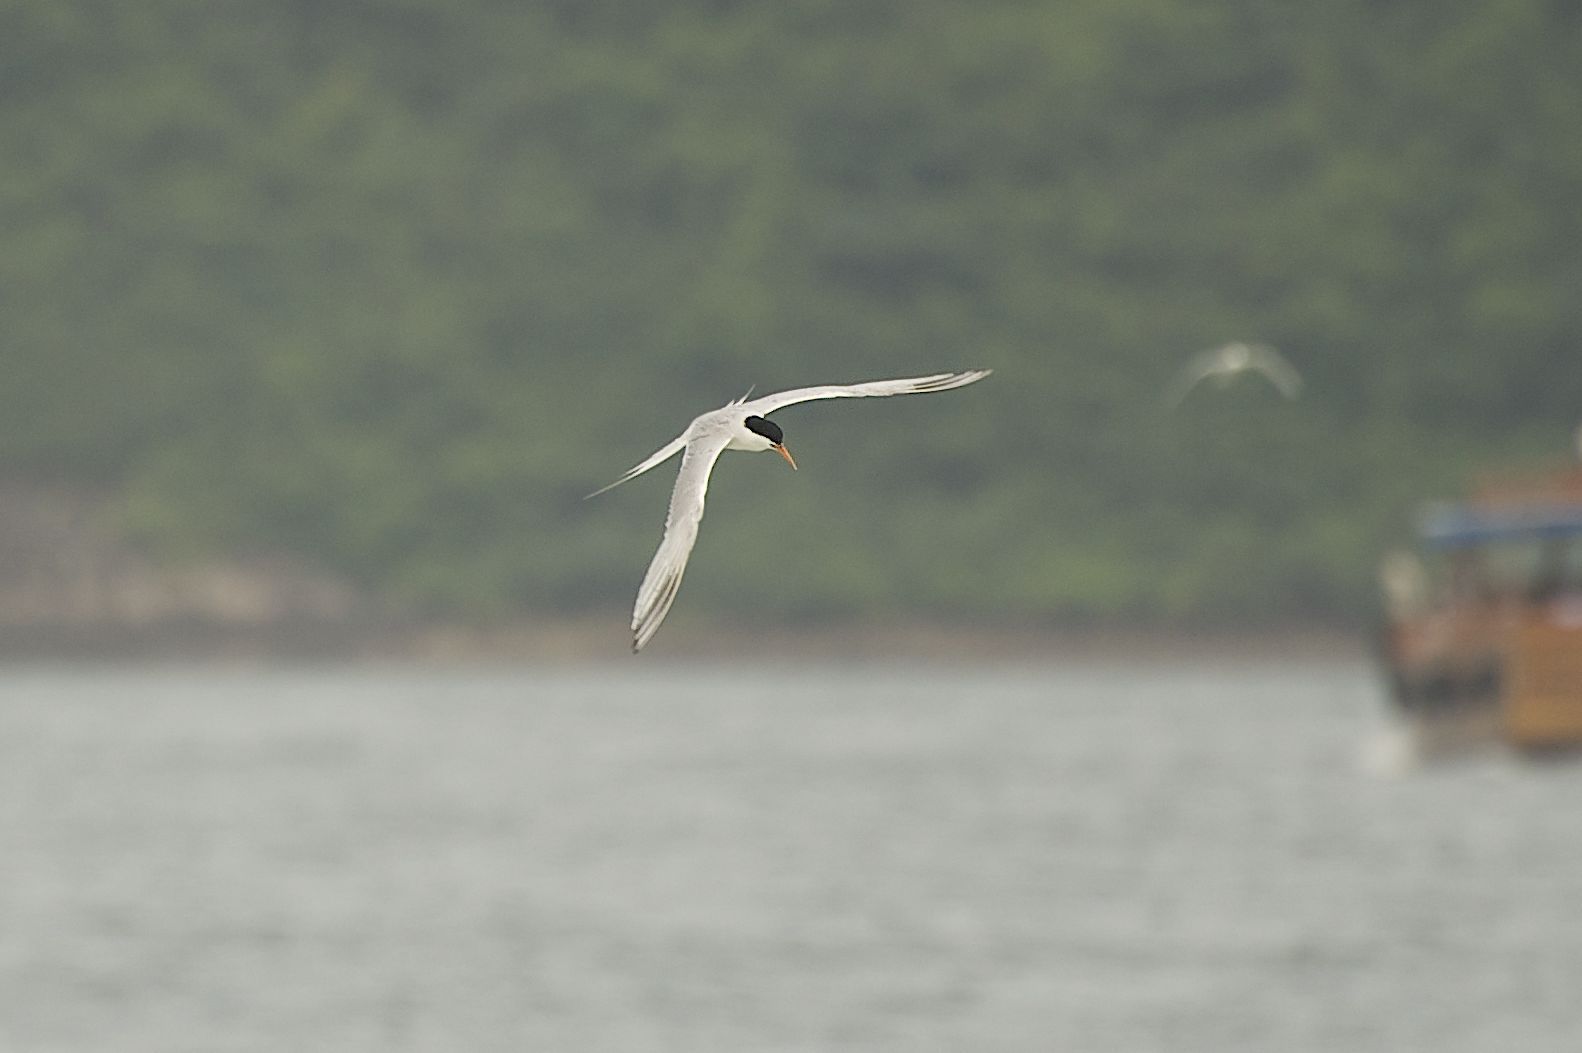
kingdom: Animalia
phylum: Chordata
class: Aves
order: Charadriiformes
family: Laridae
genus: Sterna
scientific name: Sterna dougallii
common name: Roseate tern
